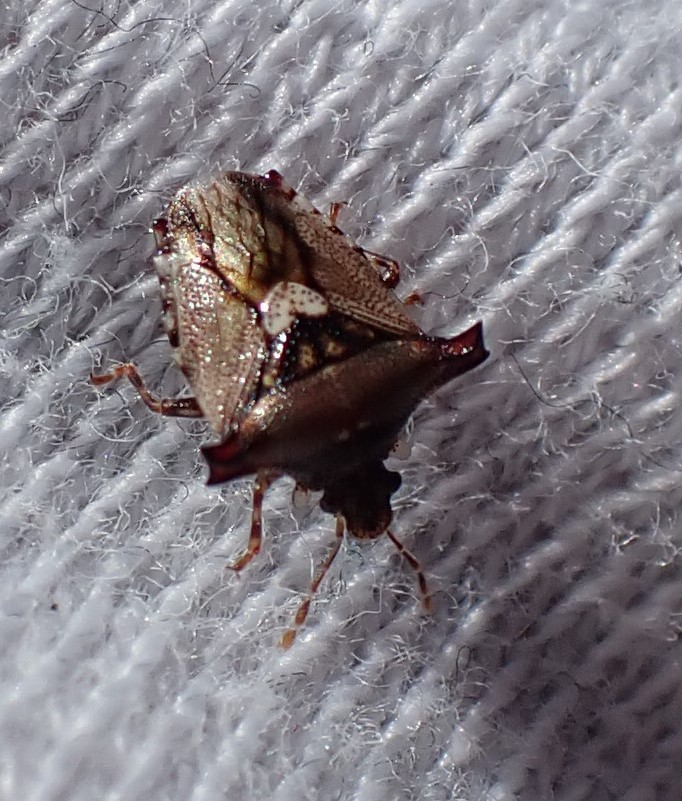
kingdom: Animalia
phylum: Arthropoda
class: Insecta
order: Hemiptera
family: Acanthosomatidae
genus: Panaetius
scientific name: Panaetius lobulatus
